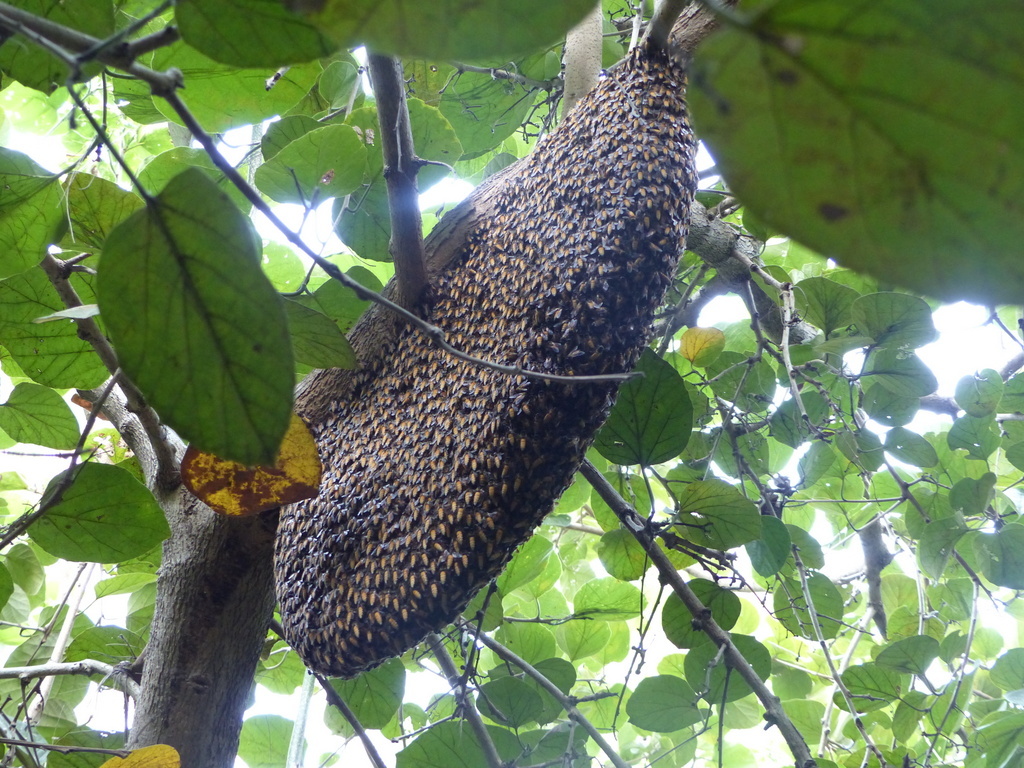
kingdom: Animalia
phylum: Arthropoda
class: Insecta
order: Hymenoptera
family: Apidae
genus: Apis
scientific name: Apis dorsata
